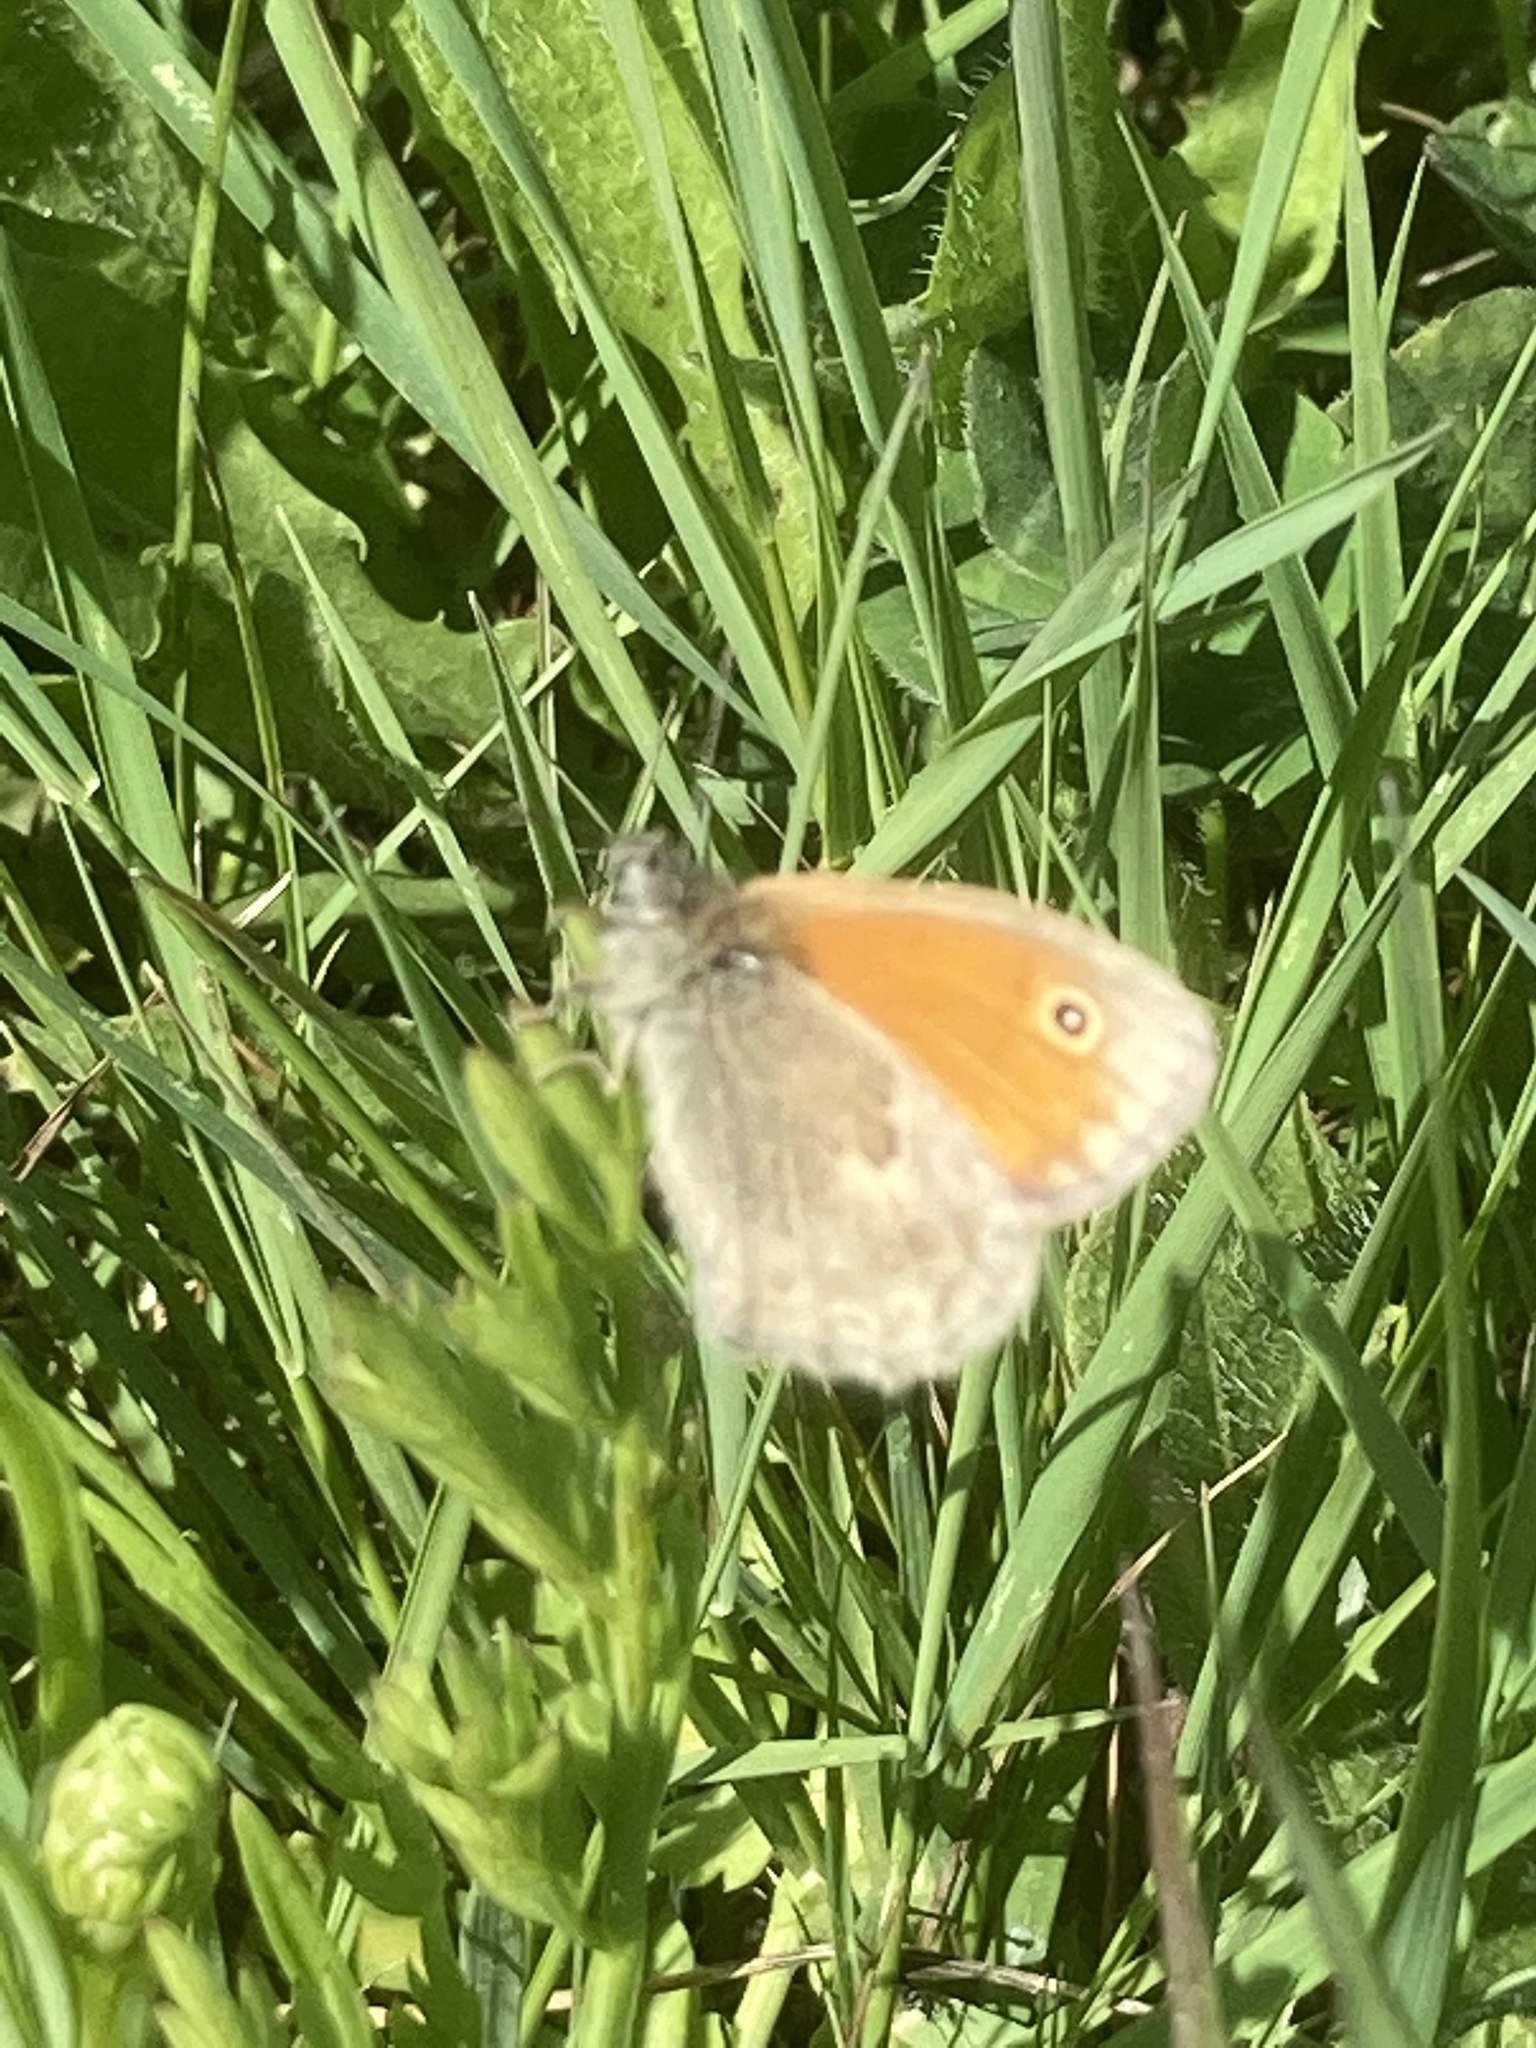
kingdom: Animalia
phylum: Arthropoda
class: Insecta
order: Lepidoptera
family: Nymphalidae
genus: Coenonympha
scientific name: Coenonympha pamphilus
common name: Small heath
